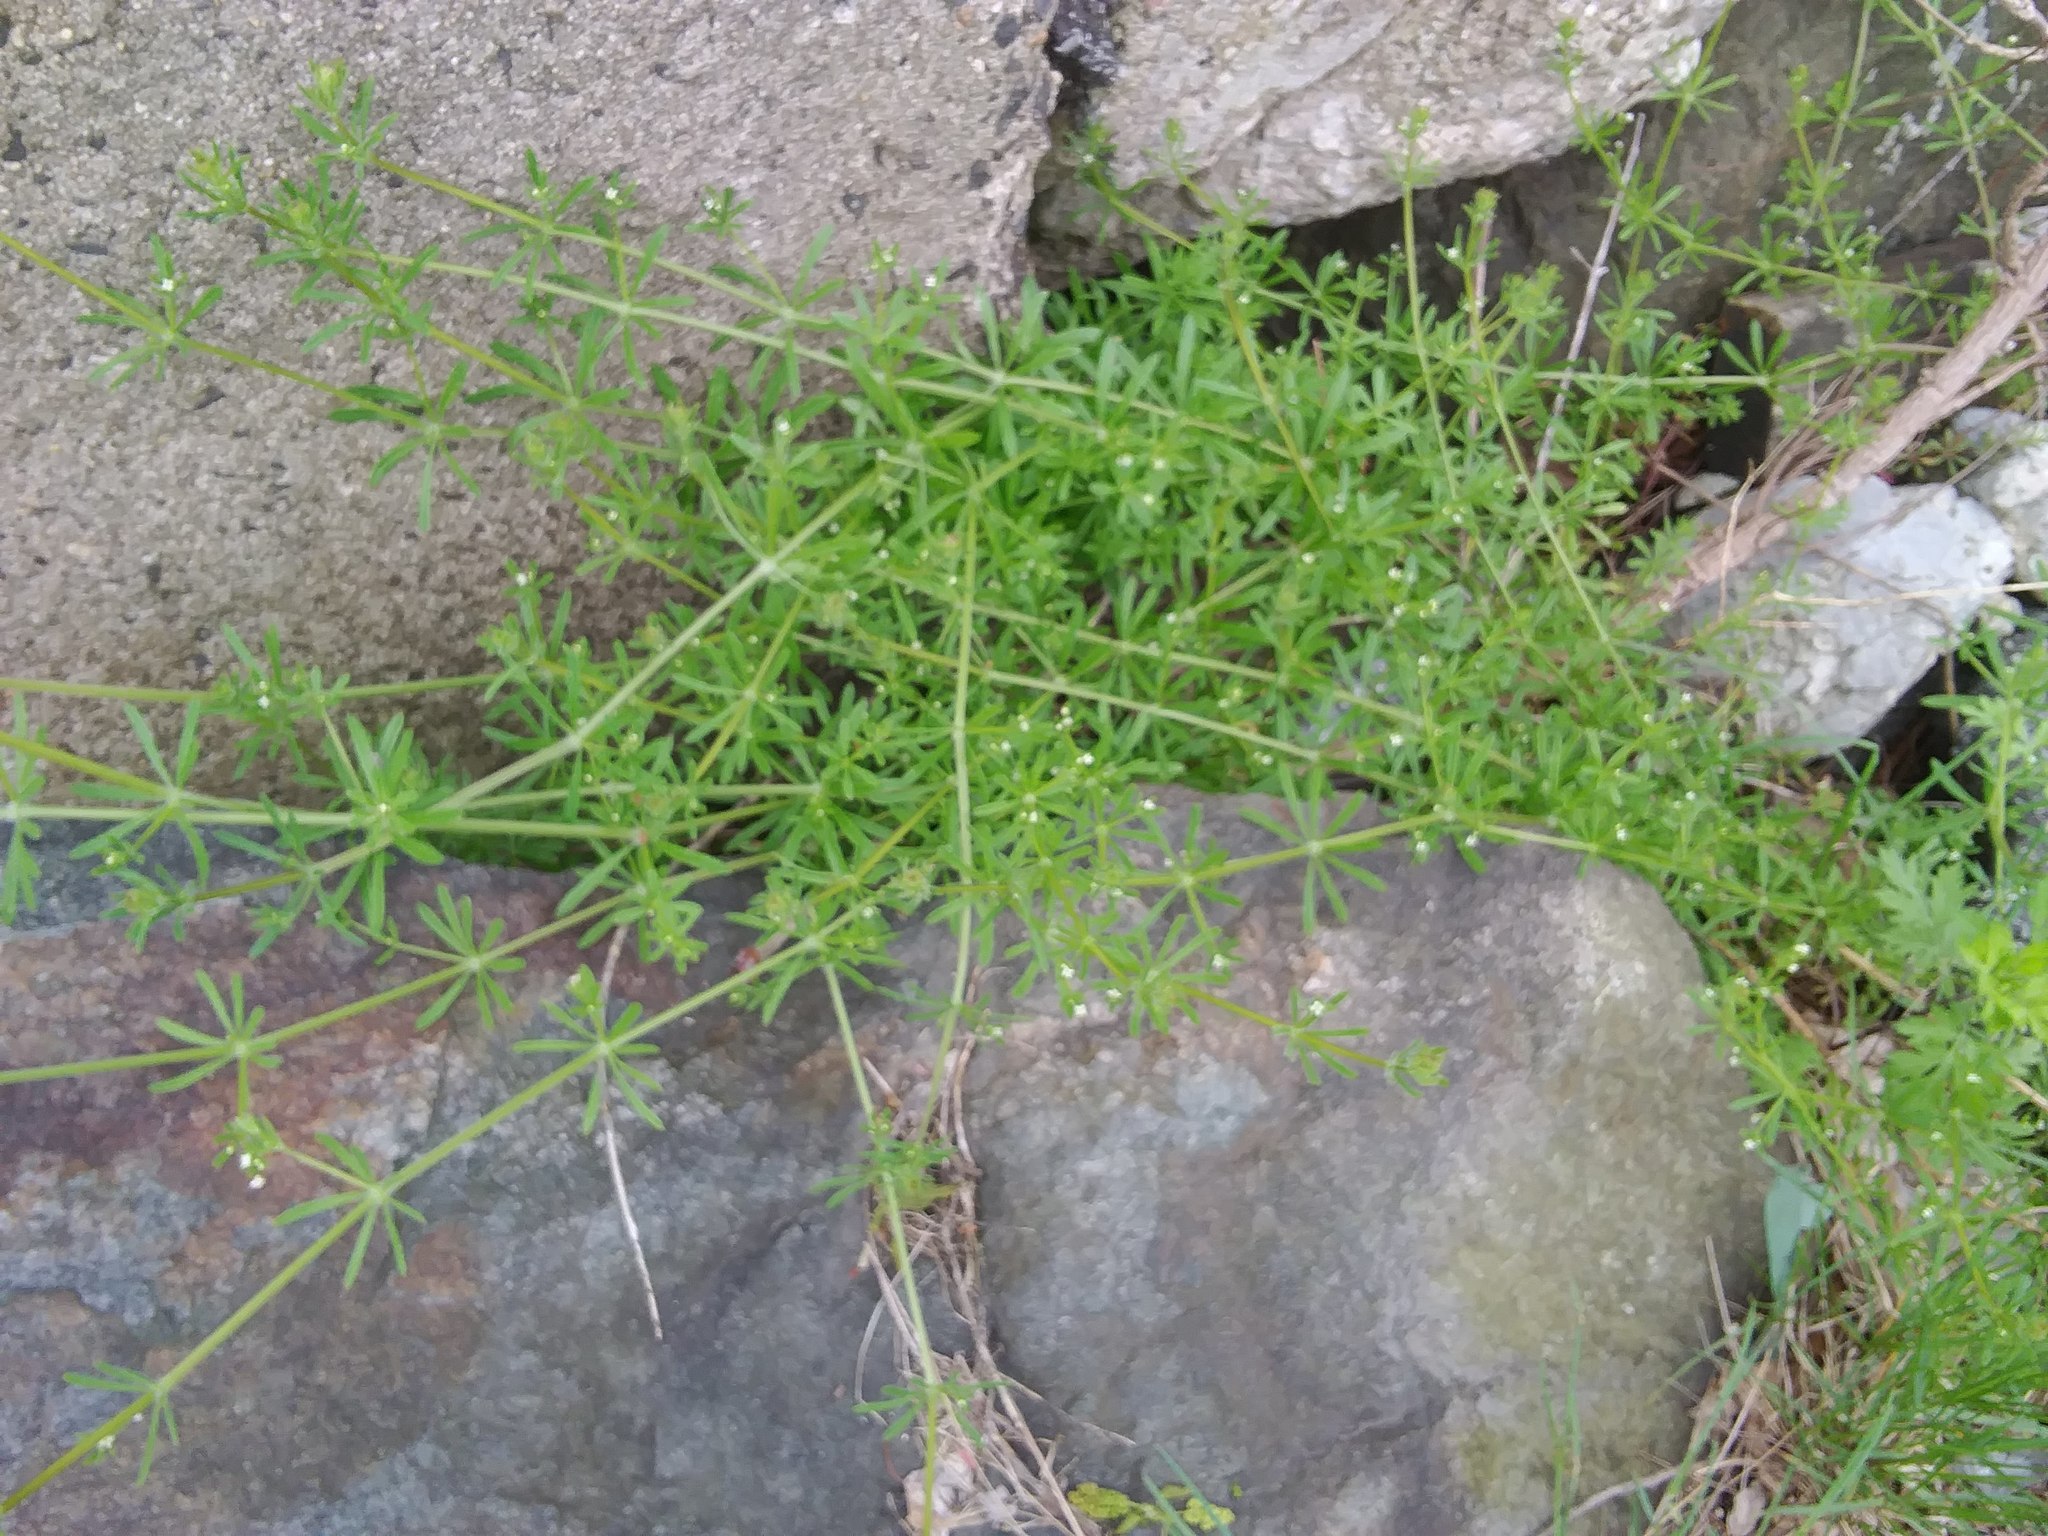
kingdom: Plantae
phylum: Tracheophyta
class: Magnoliopsida
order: Gentianales
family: Rubiaceae
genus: Galium
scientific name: Galium aparine
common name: Cleavers
